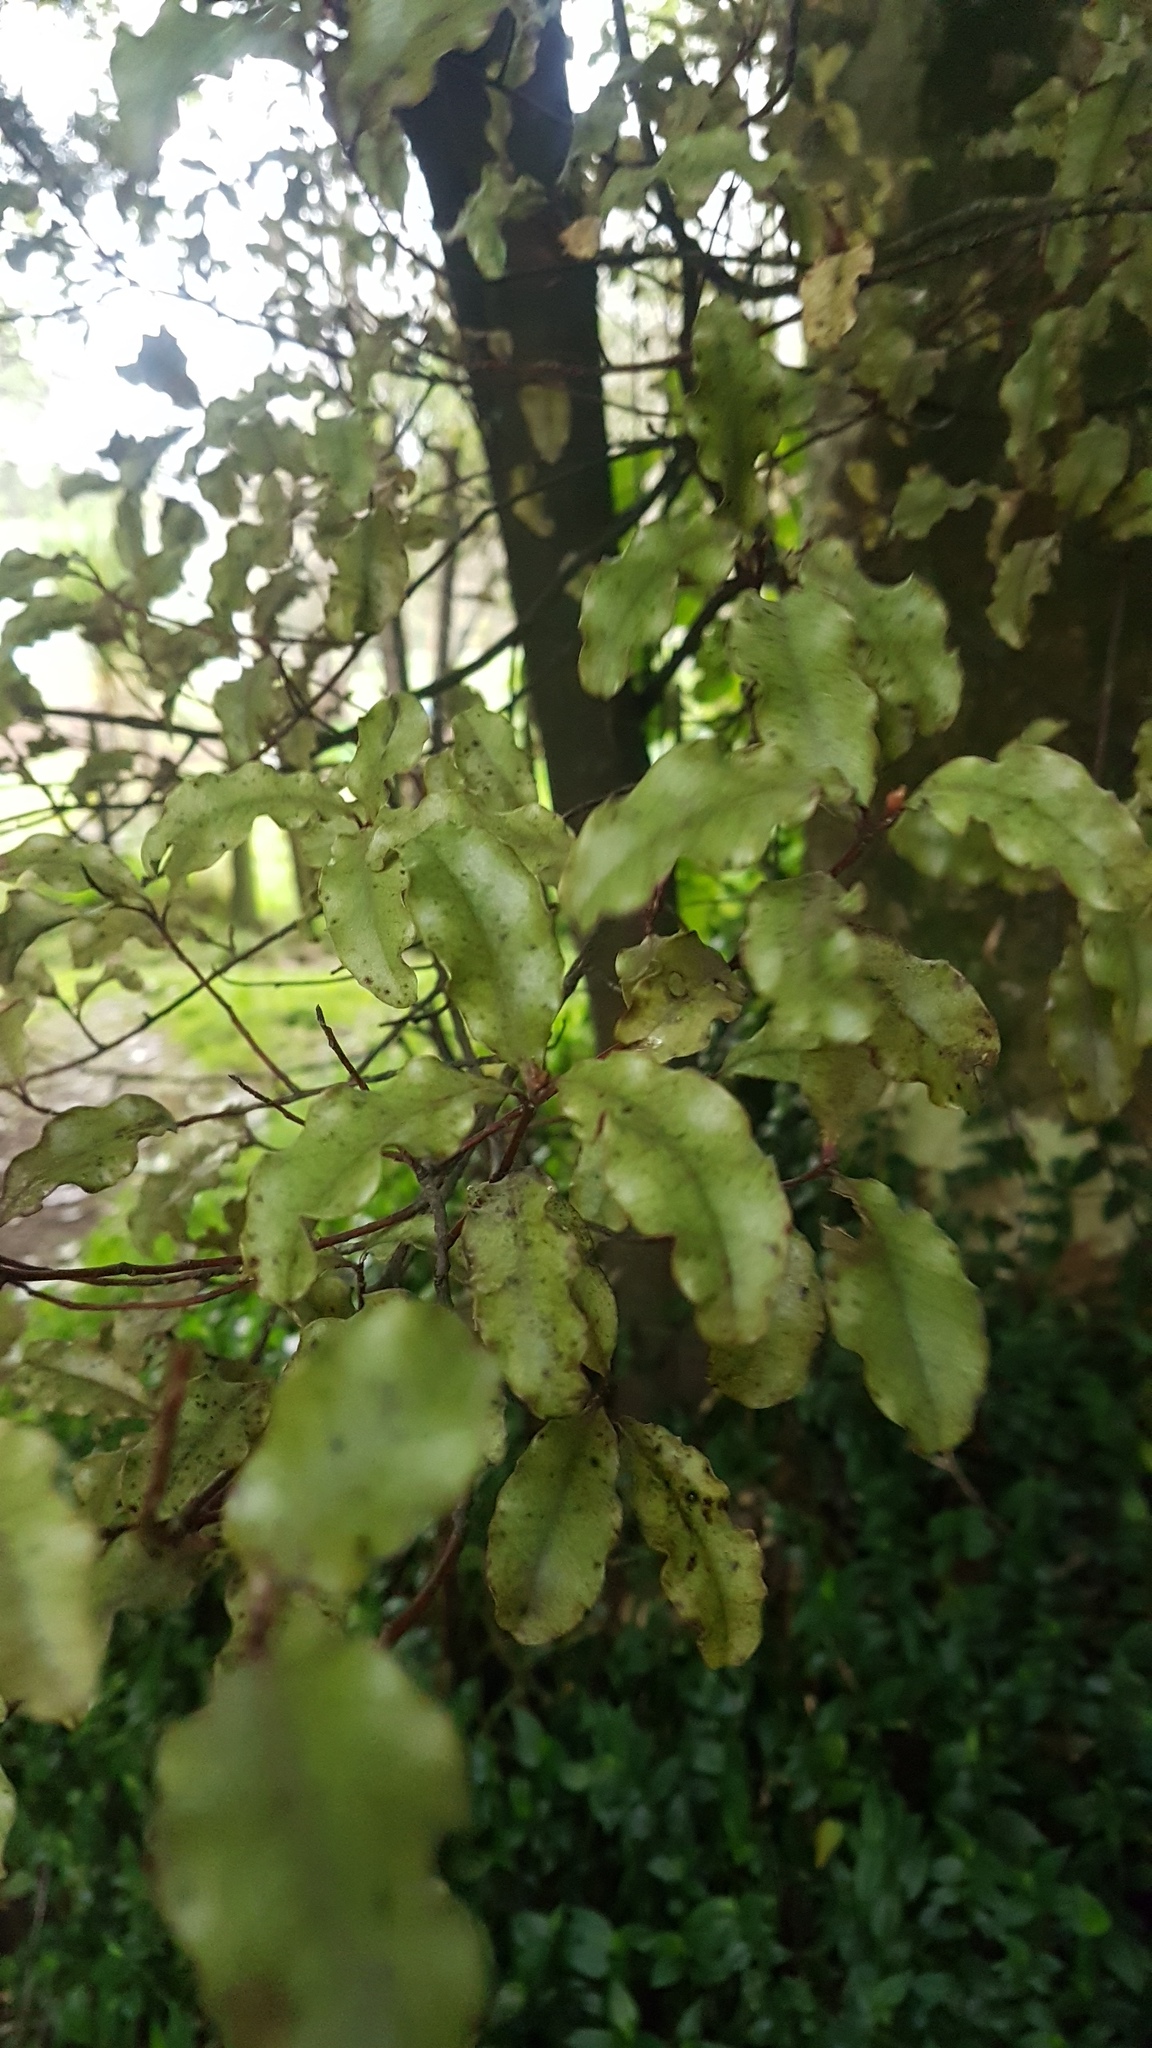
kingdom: Plantae
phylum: Tracheophyta
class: Magnoliopsida
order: Ericales
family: Primulaceae
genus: Myrsine
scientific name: Myrsine australis
